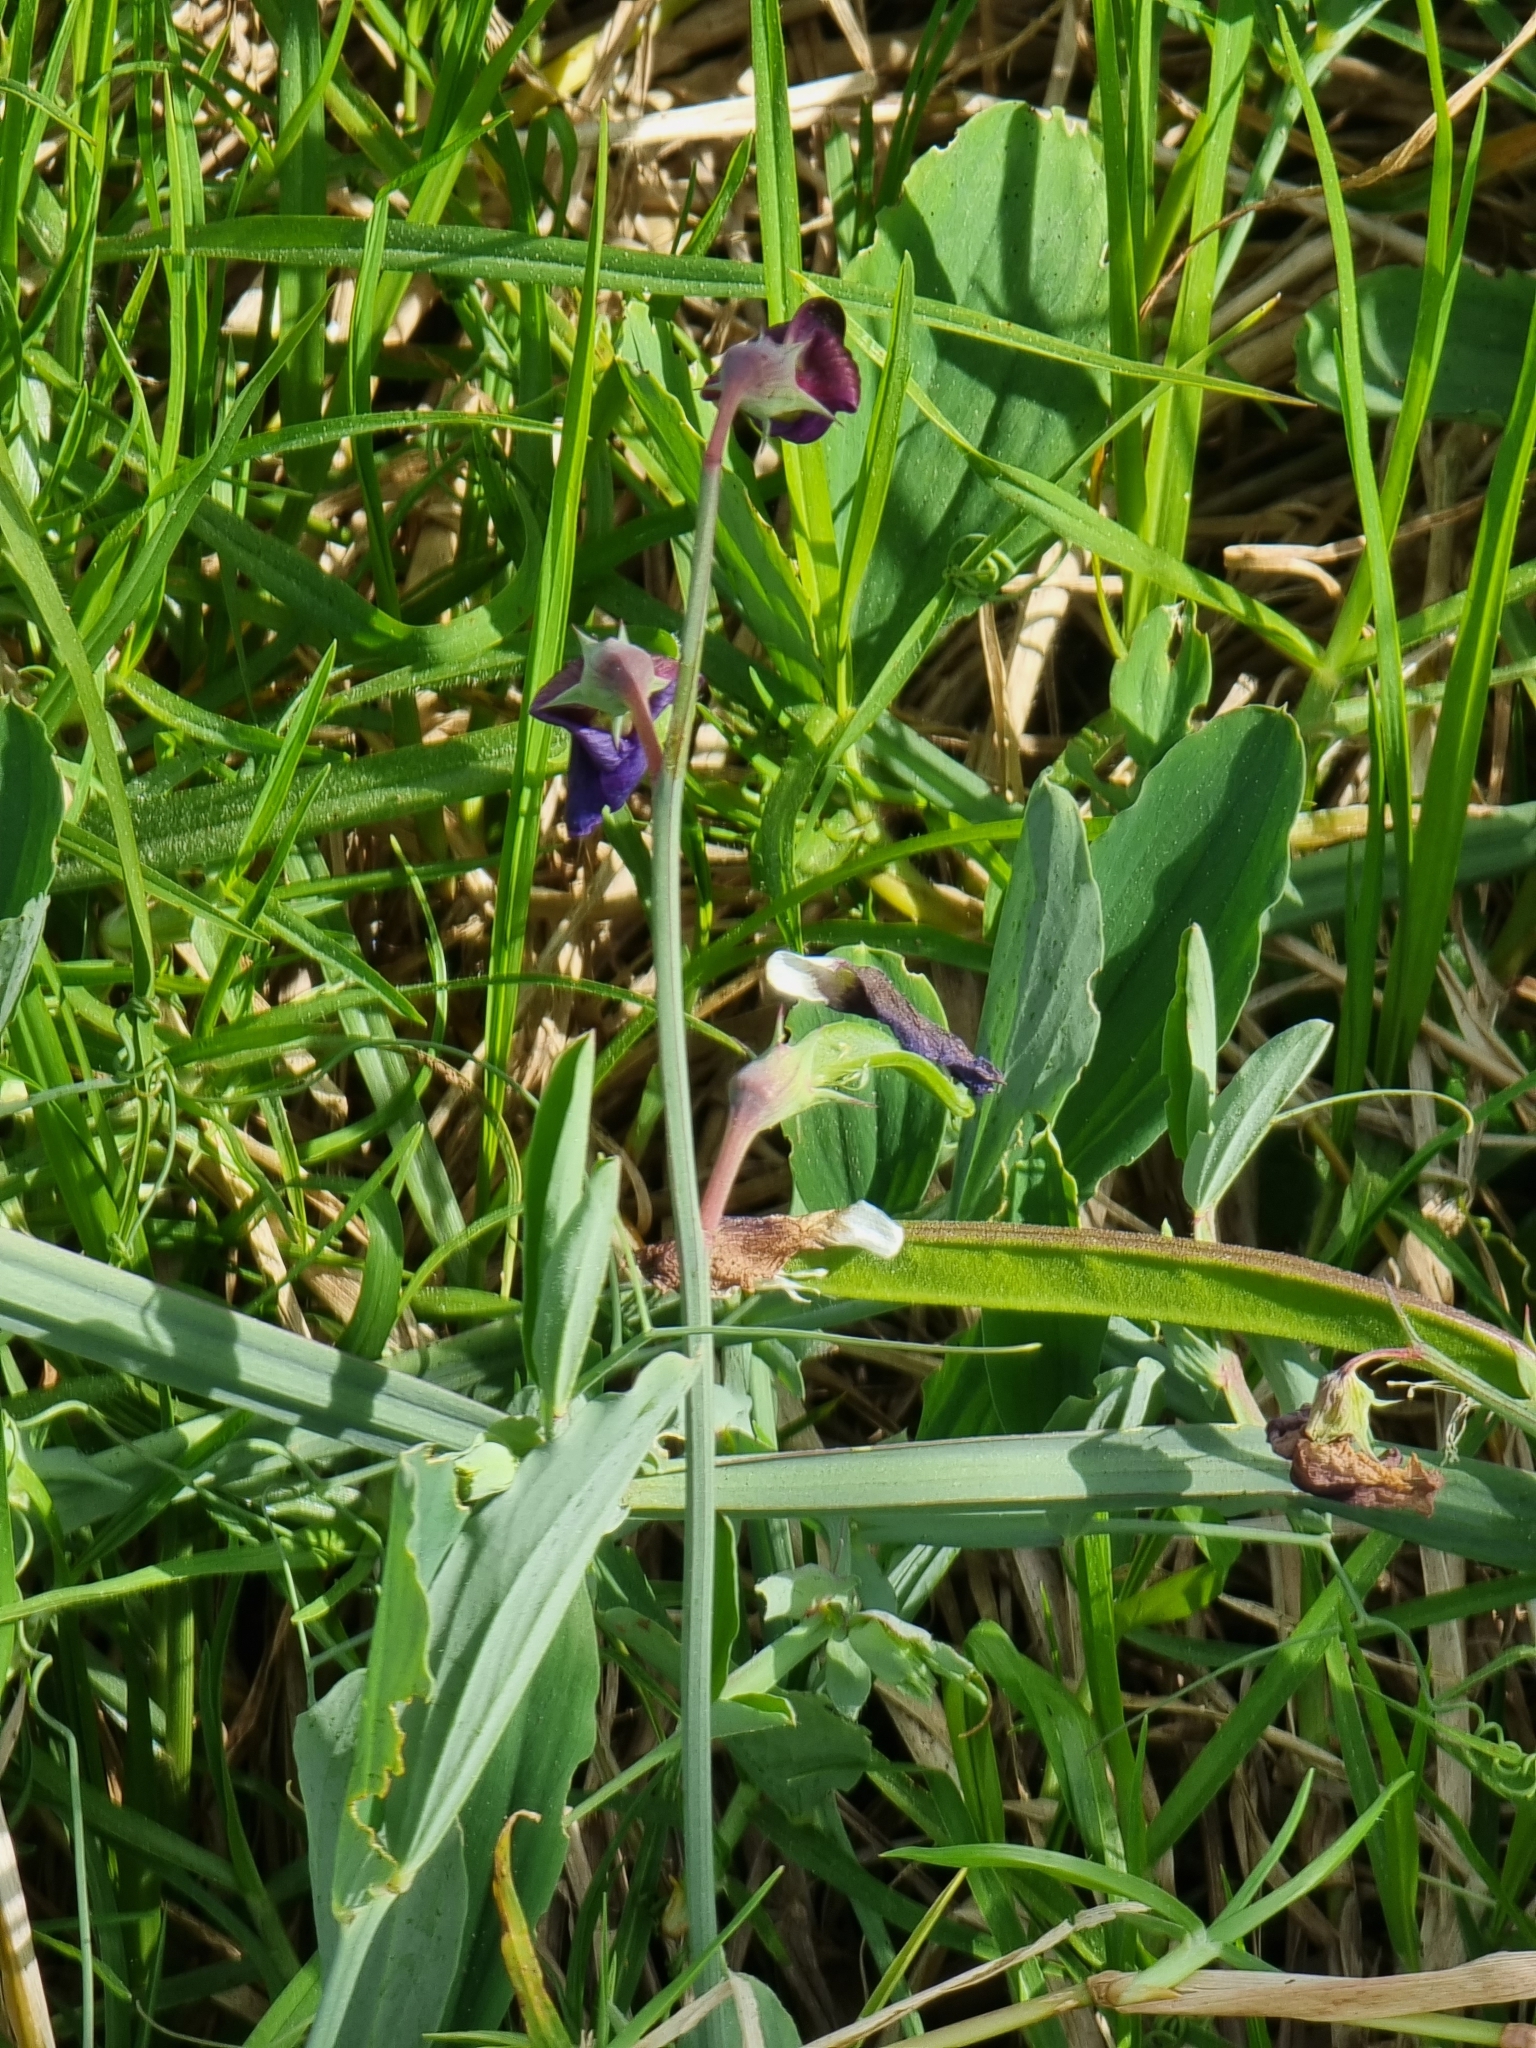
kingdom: Plantae
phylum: Tracheophyta
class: Magnoliopsida
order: Fabales
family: Fabaceae
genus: Lathyrus
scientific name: Lathyrus tingitanus
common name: Tangier pea
